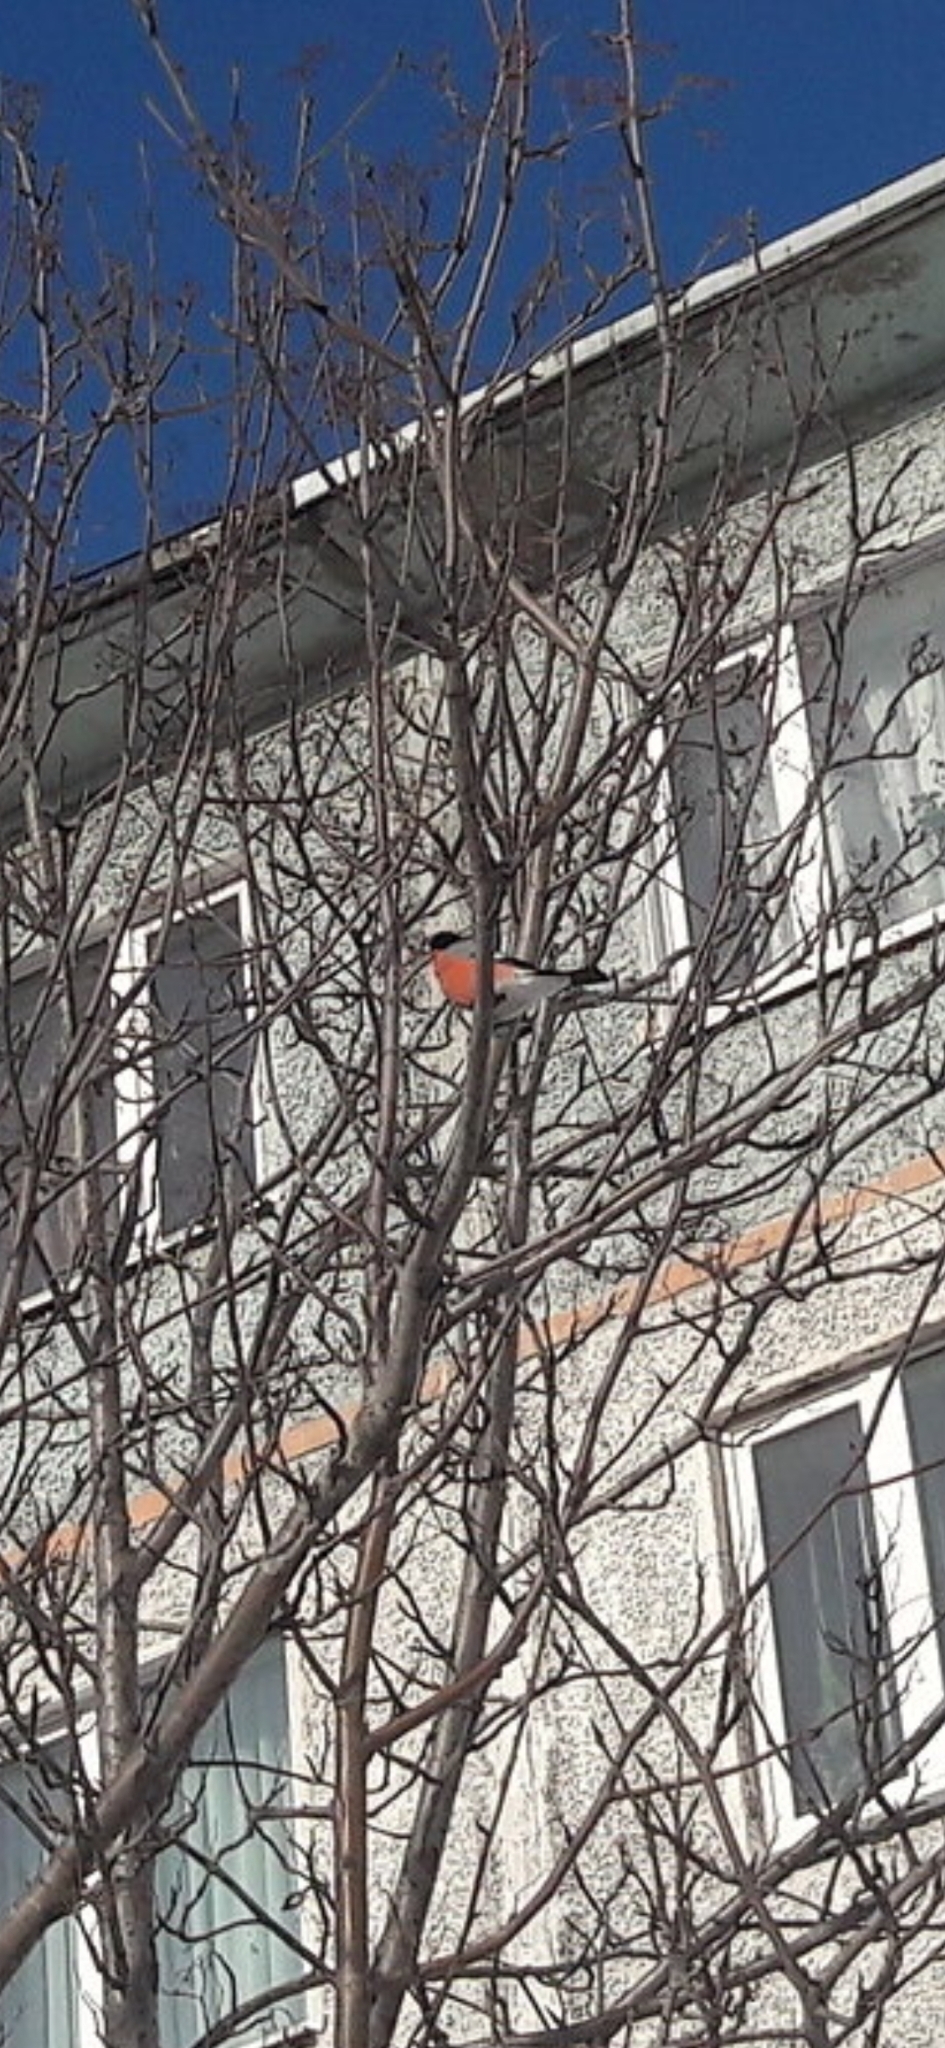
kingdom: Animalia
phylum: Chordata
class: Aves
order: Passeriformes
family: Fringillidae
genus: Pyrrhula
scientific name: Pyrrhula pyrrhula
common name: Eurasian bullfinch
